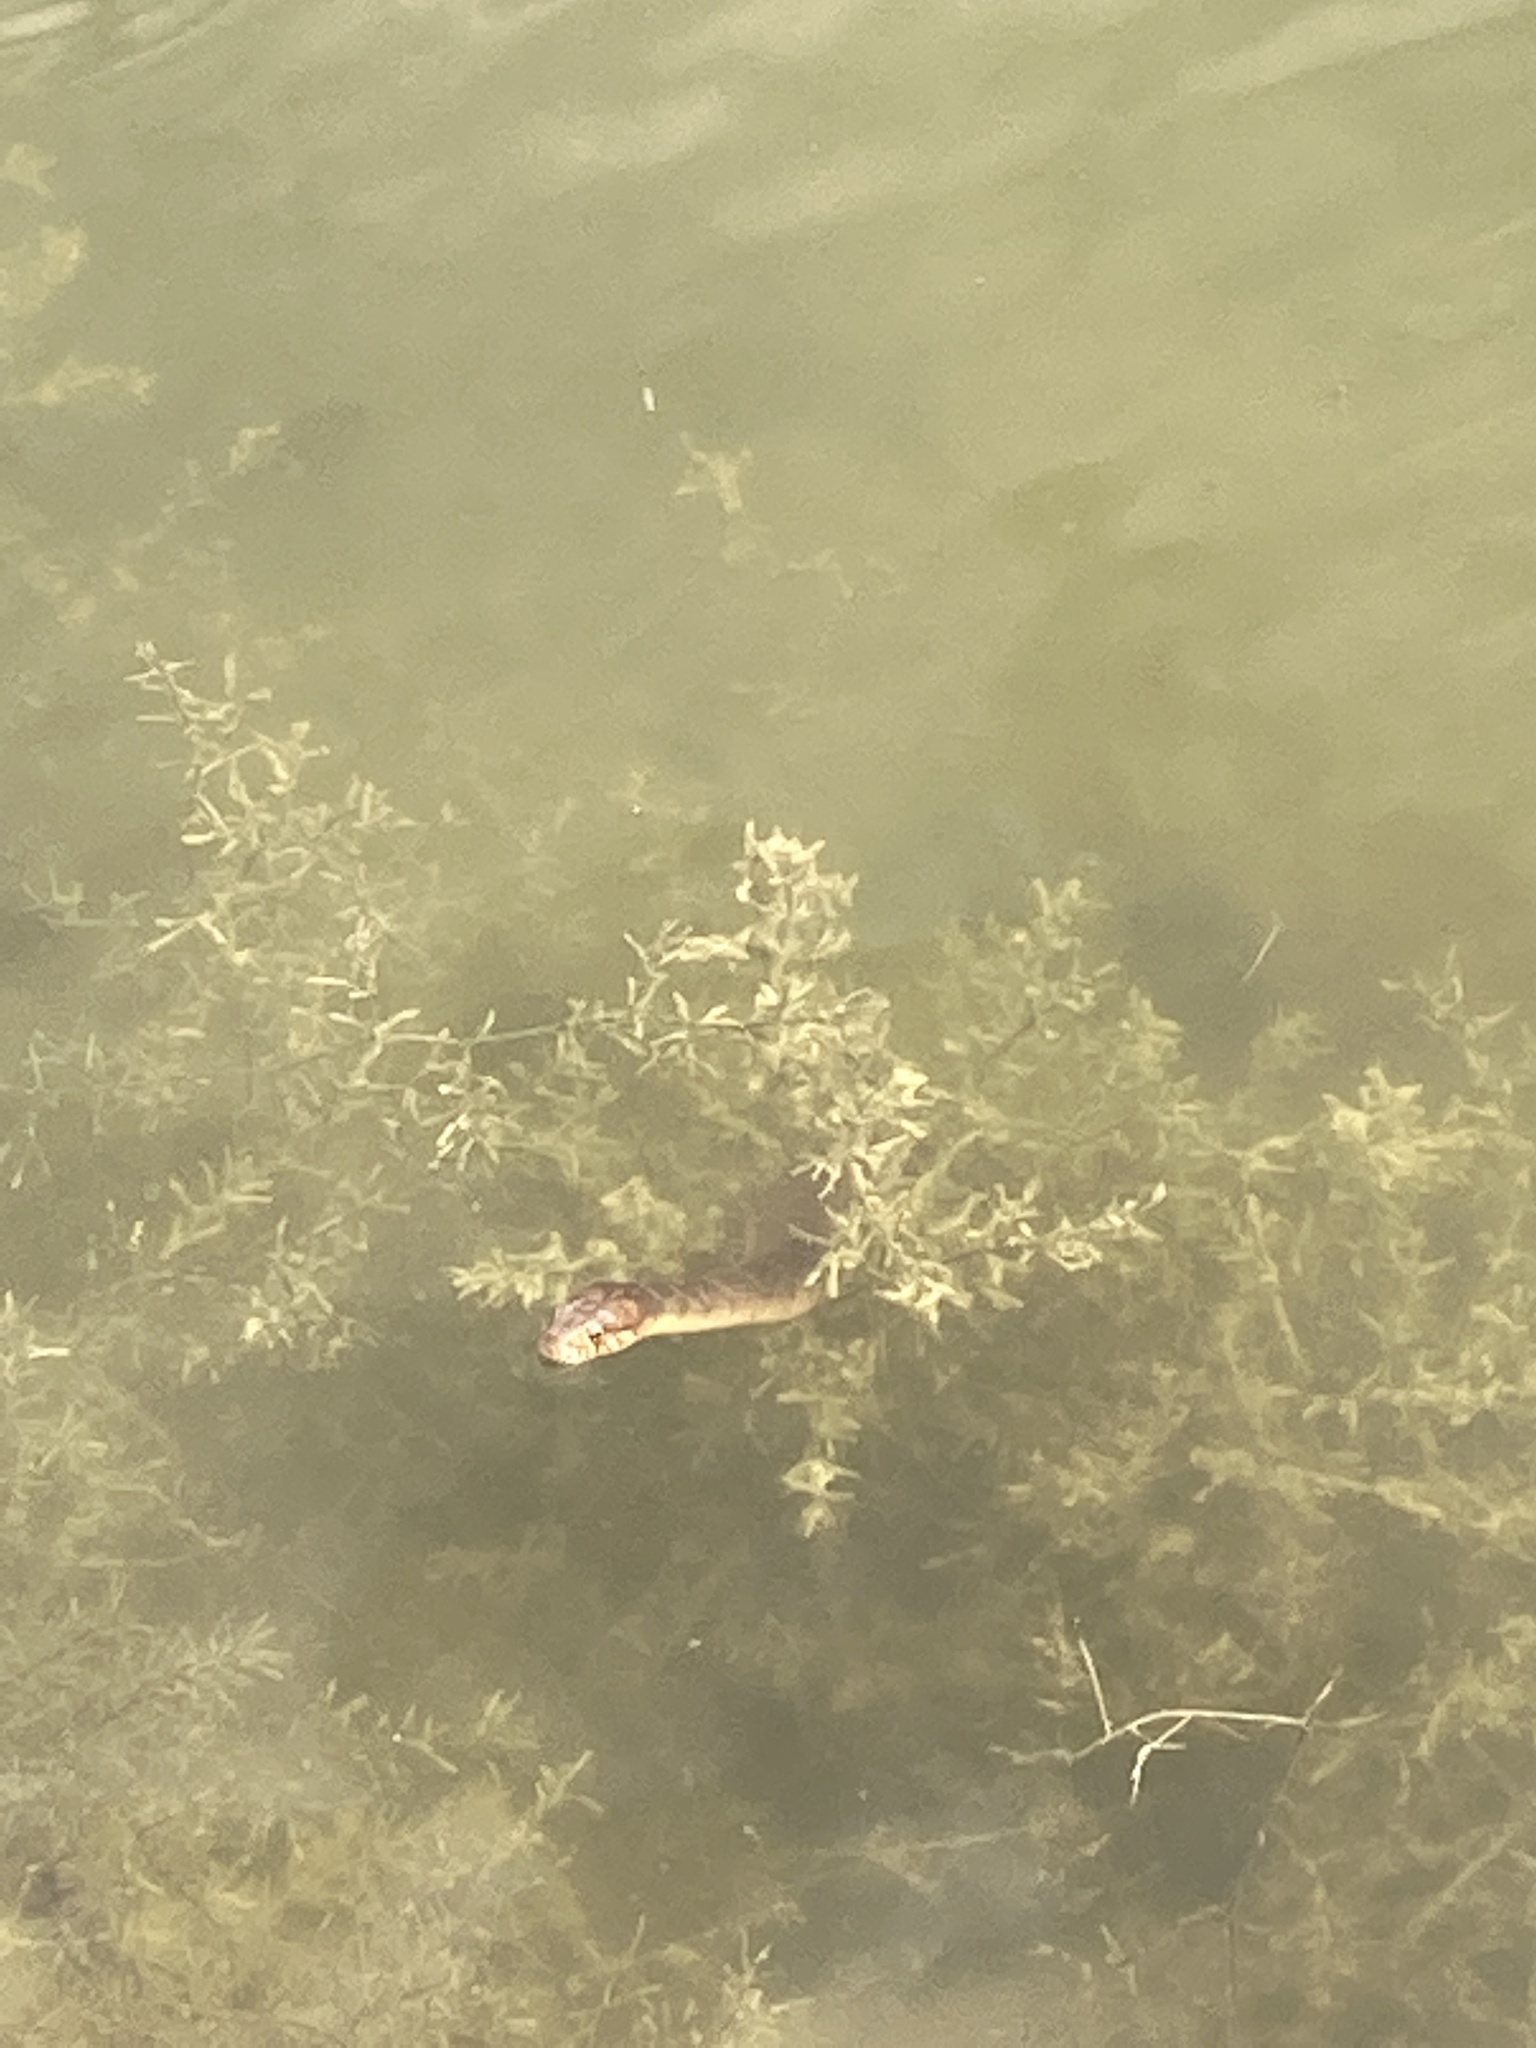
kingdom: Animalia
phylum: Chordata
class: Squamata
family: Colubridae
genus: Nerodia
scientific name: Nerodia erythrogaster
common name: Plainbelly water snake
